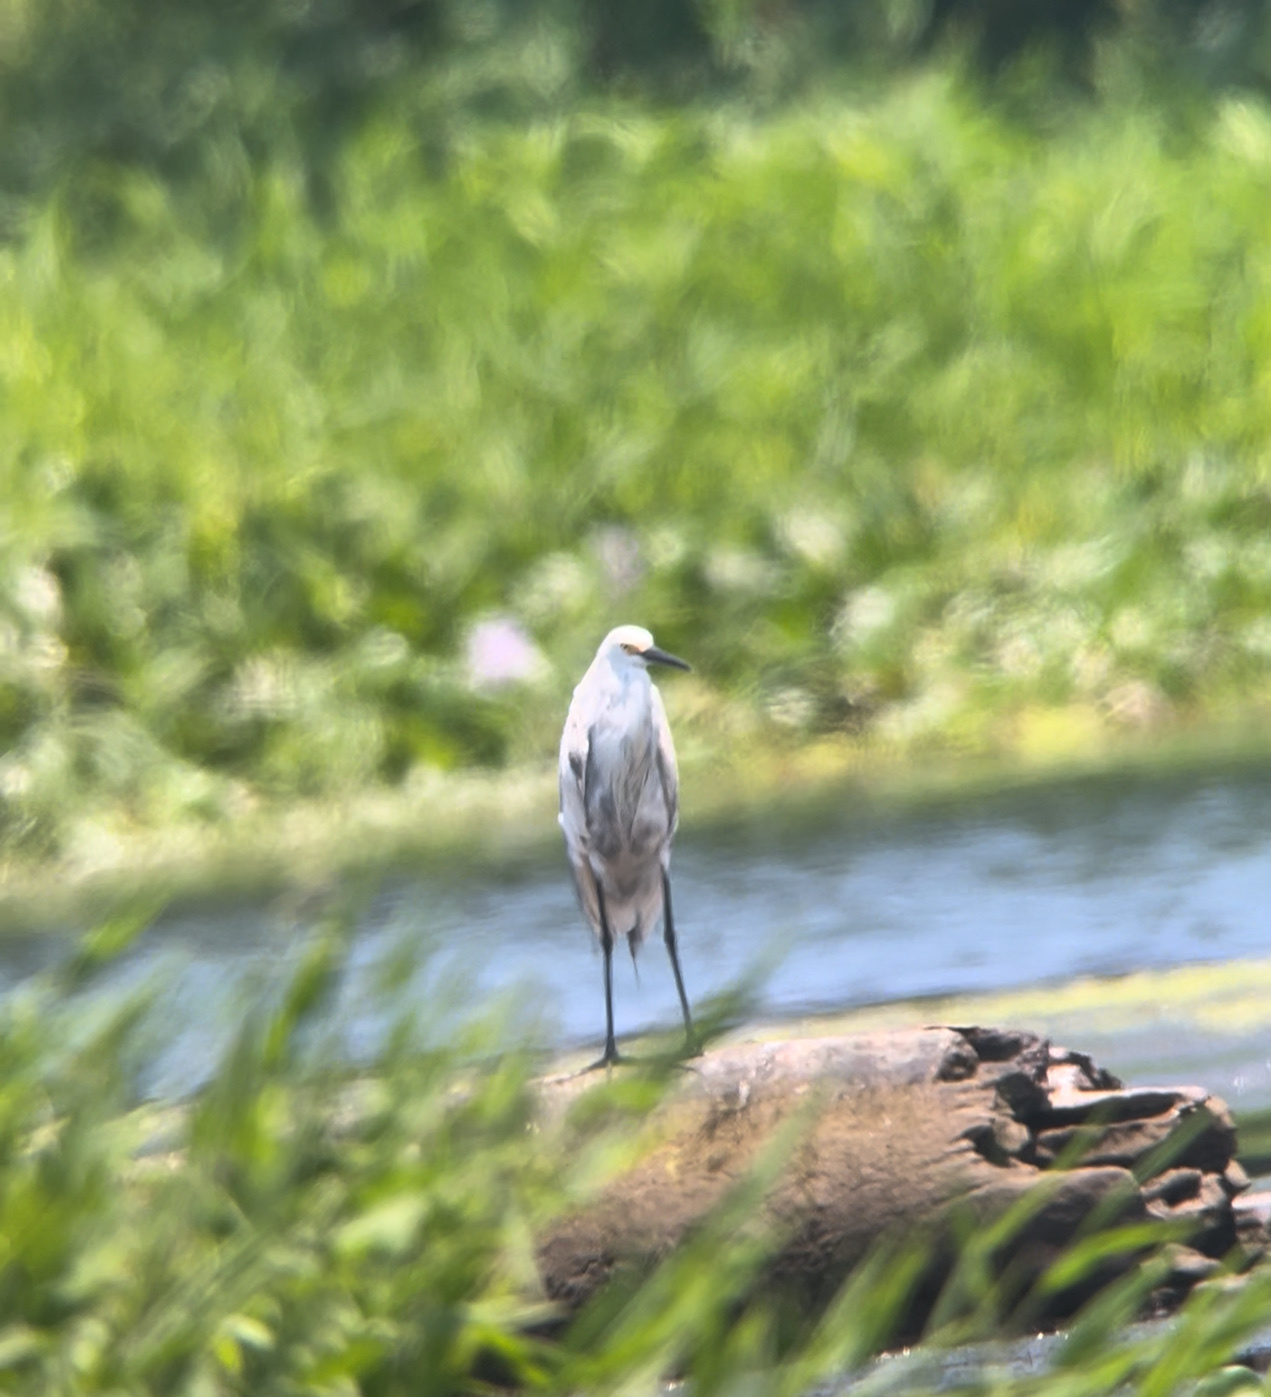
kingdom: Animalia
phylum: Chordata
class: Aves
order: Pelecaniformes
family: Ardeidae
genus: Egretta
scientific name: Egretta
